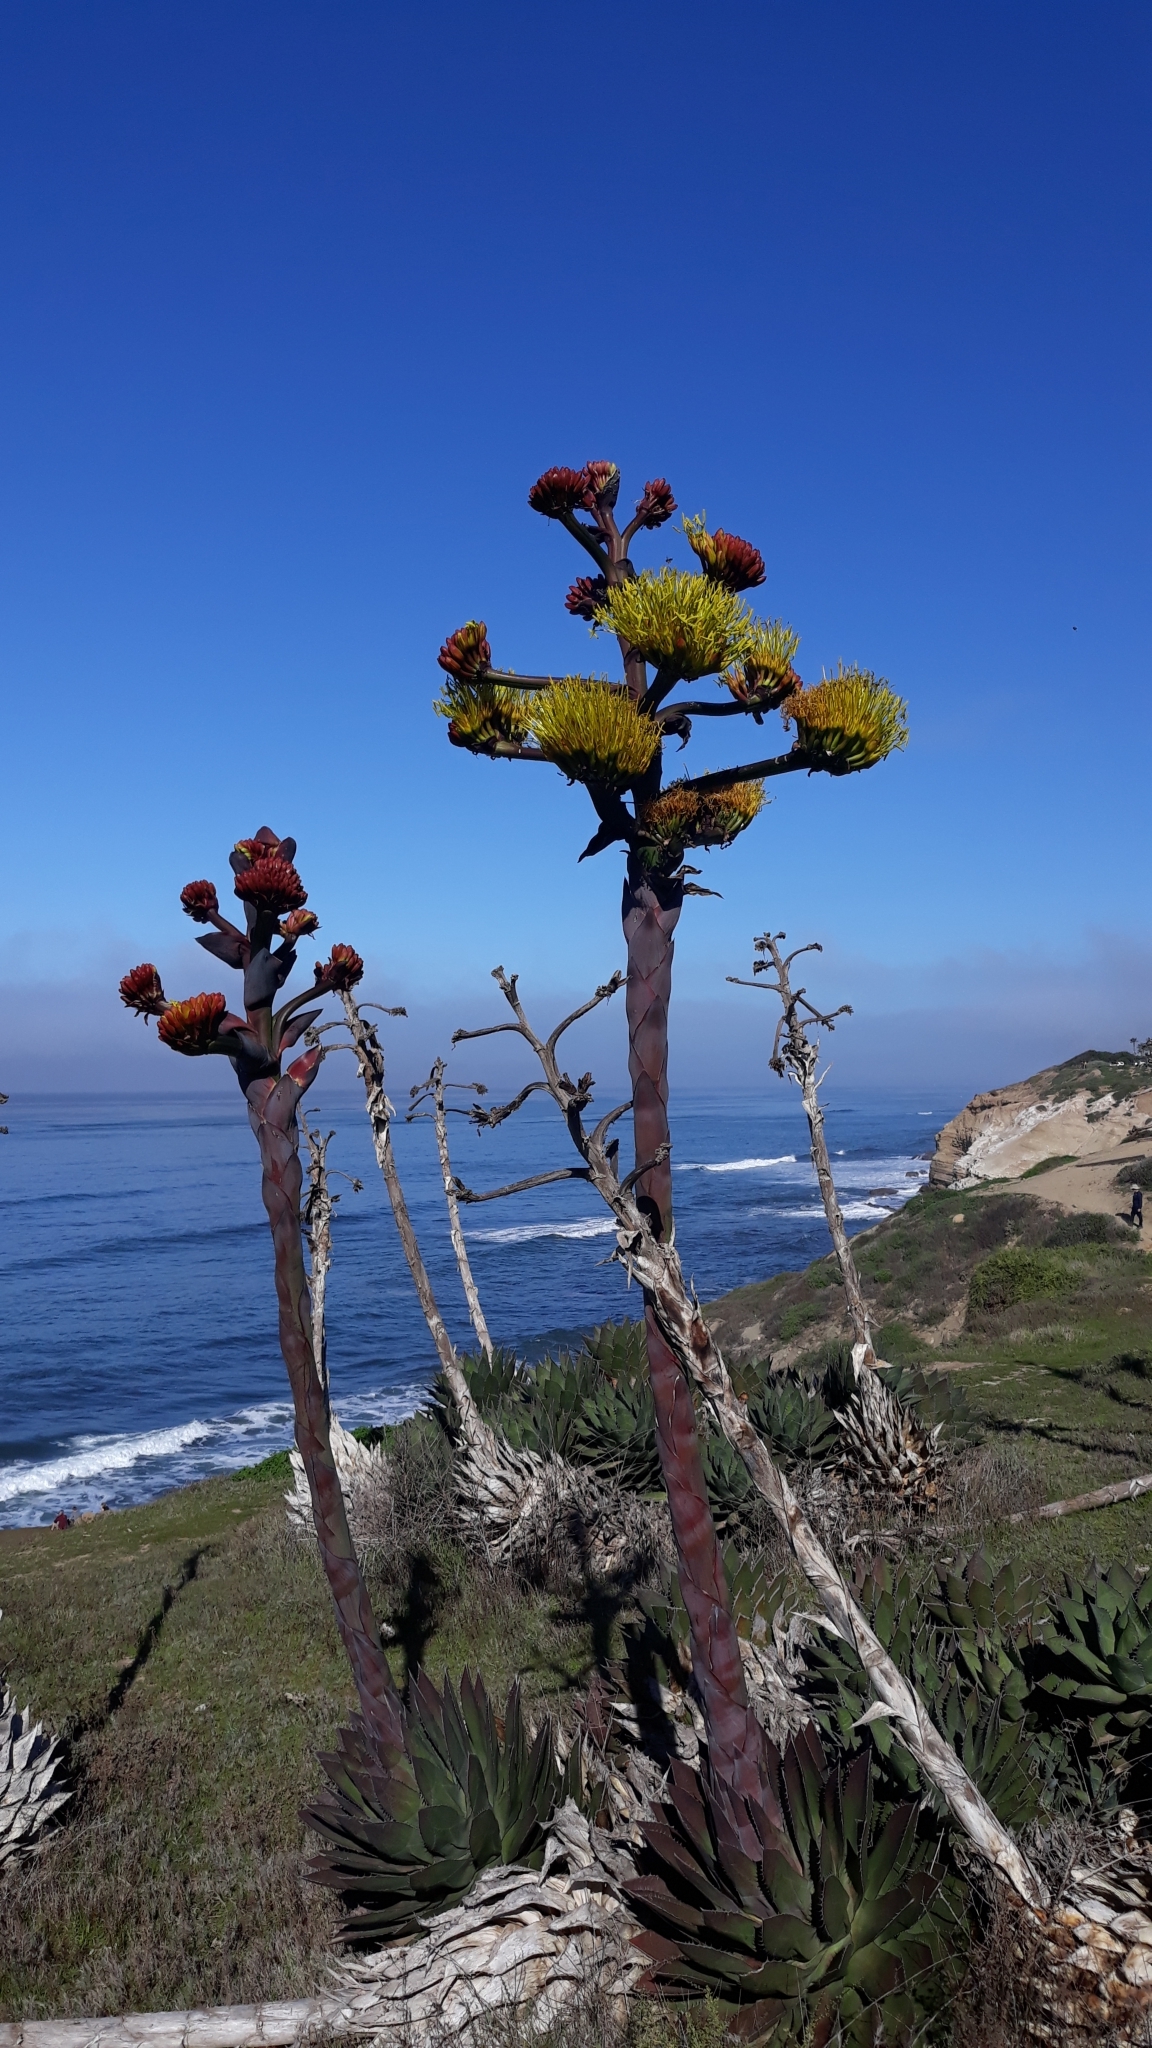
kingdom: Plantae
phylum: Tracheophyta
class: Liliopsida
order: Asparagales
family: Asparagaceae
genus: Agave
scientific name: Agave shawii
